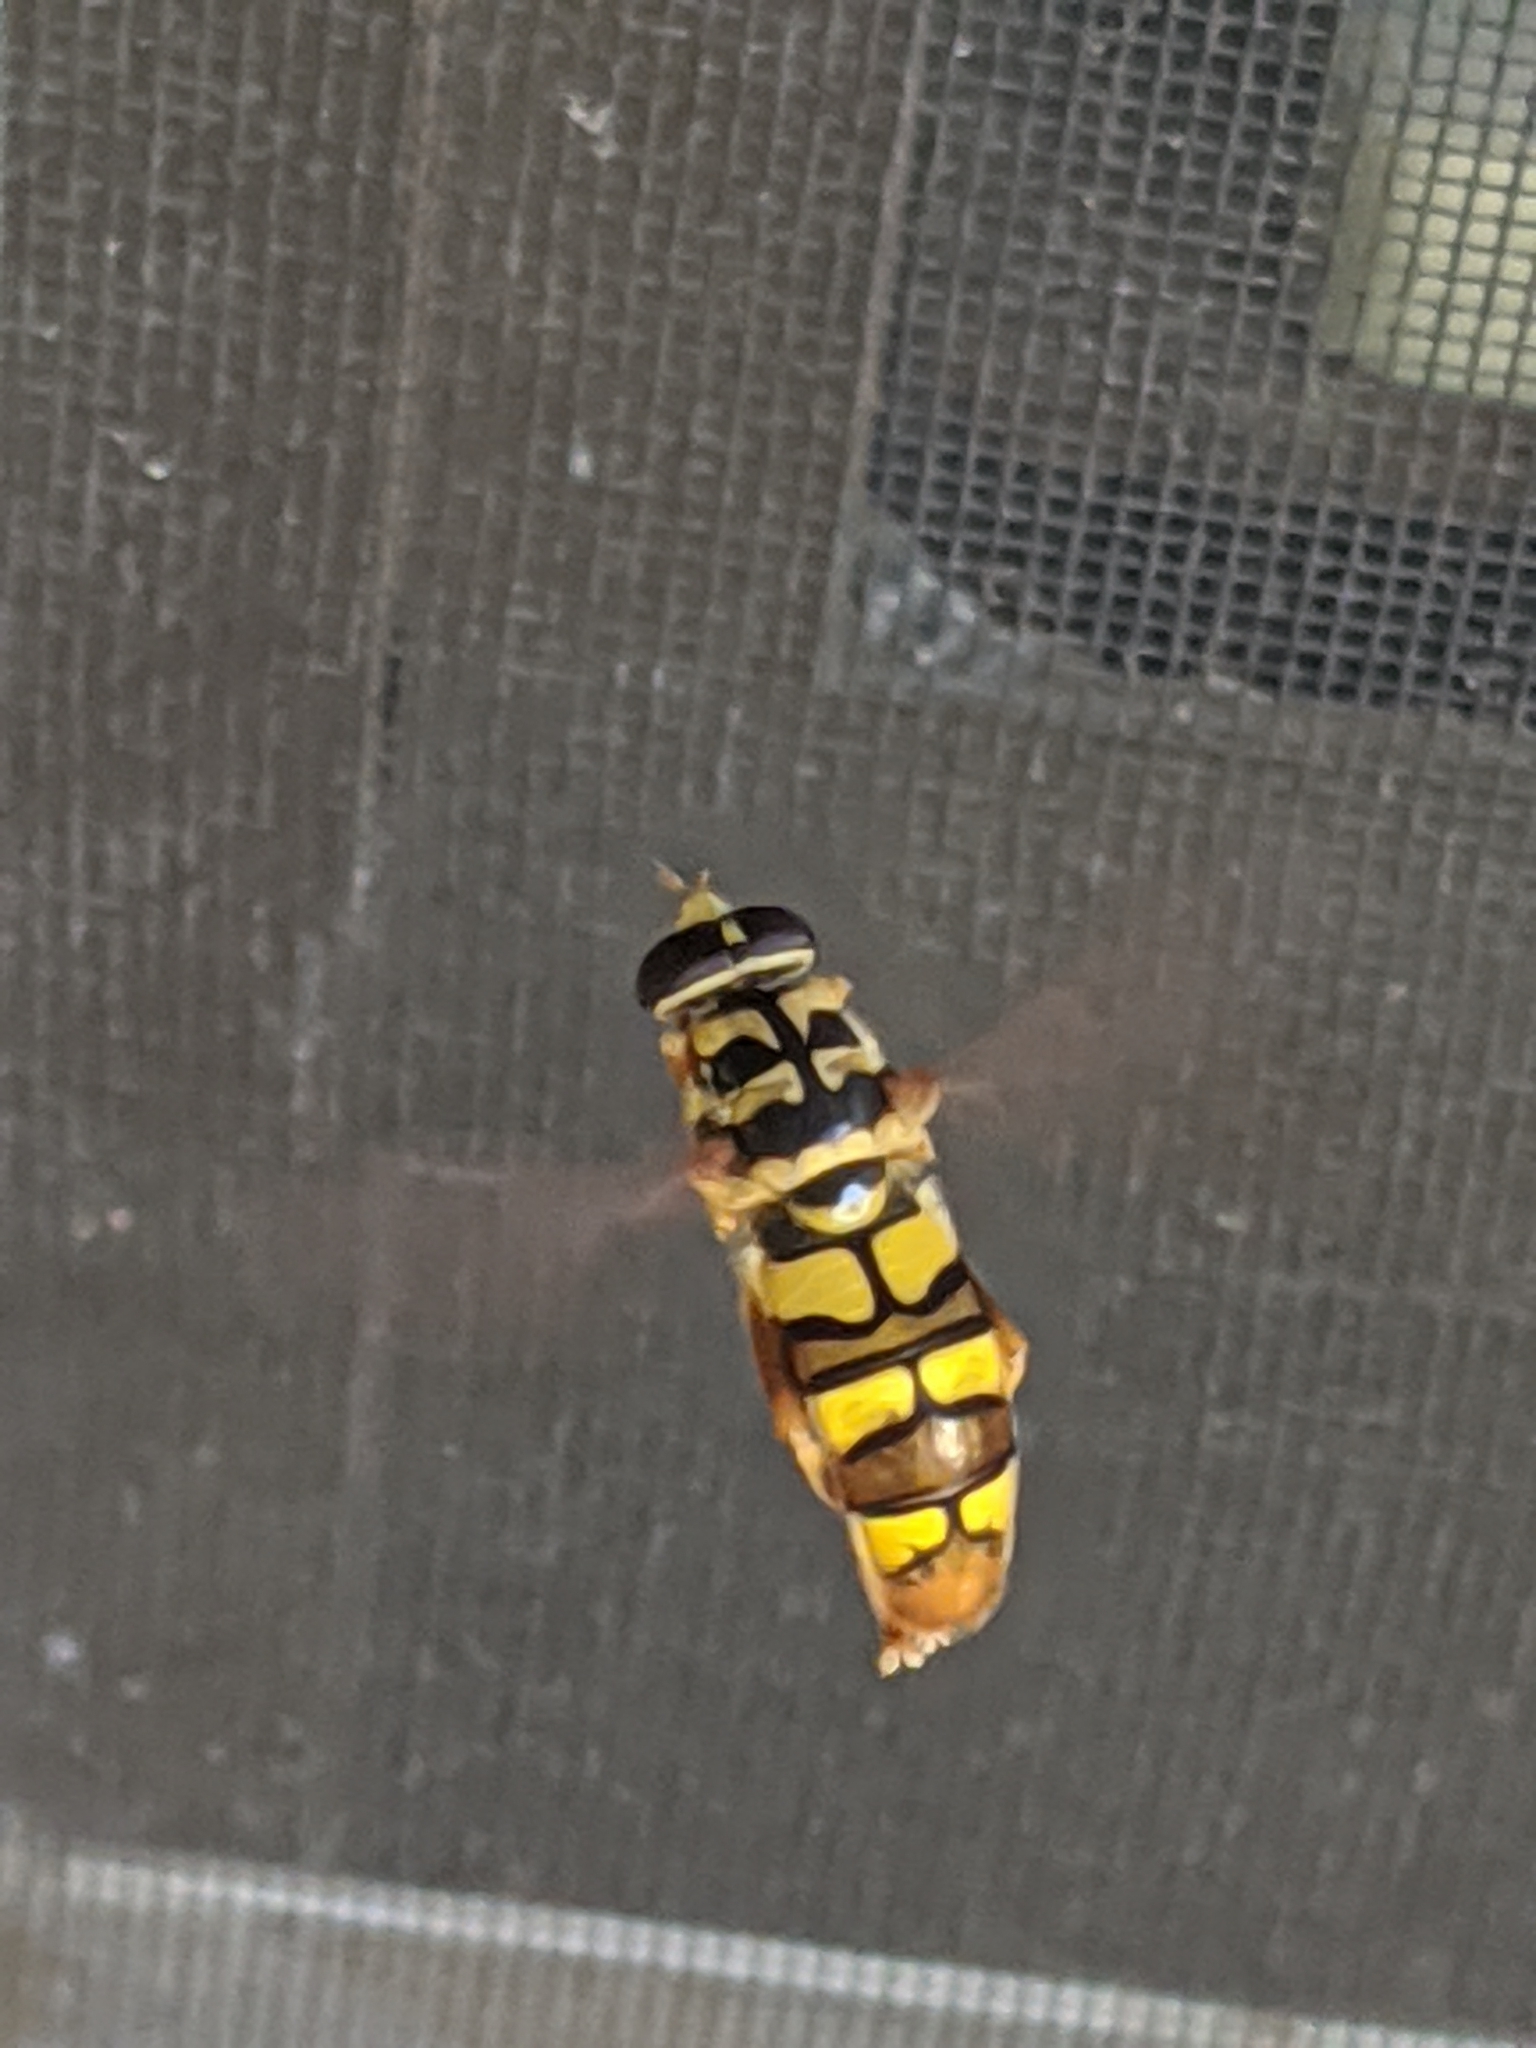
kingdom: Animalia
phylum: Arthropoda
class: Insecta
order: Diptera
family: Syrphidae
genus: Milesia
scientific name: Milesia virginiensis
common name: Virginia giant
